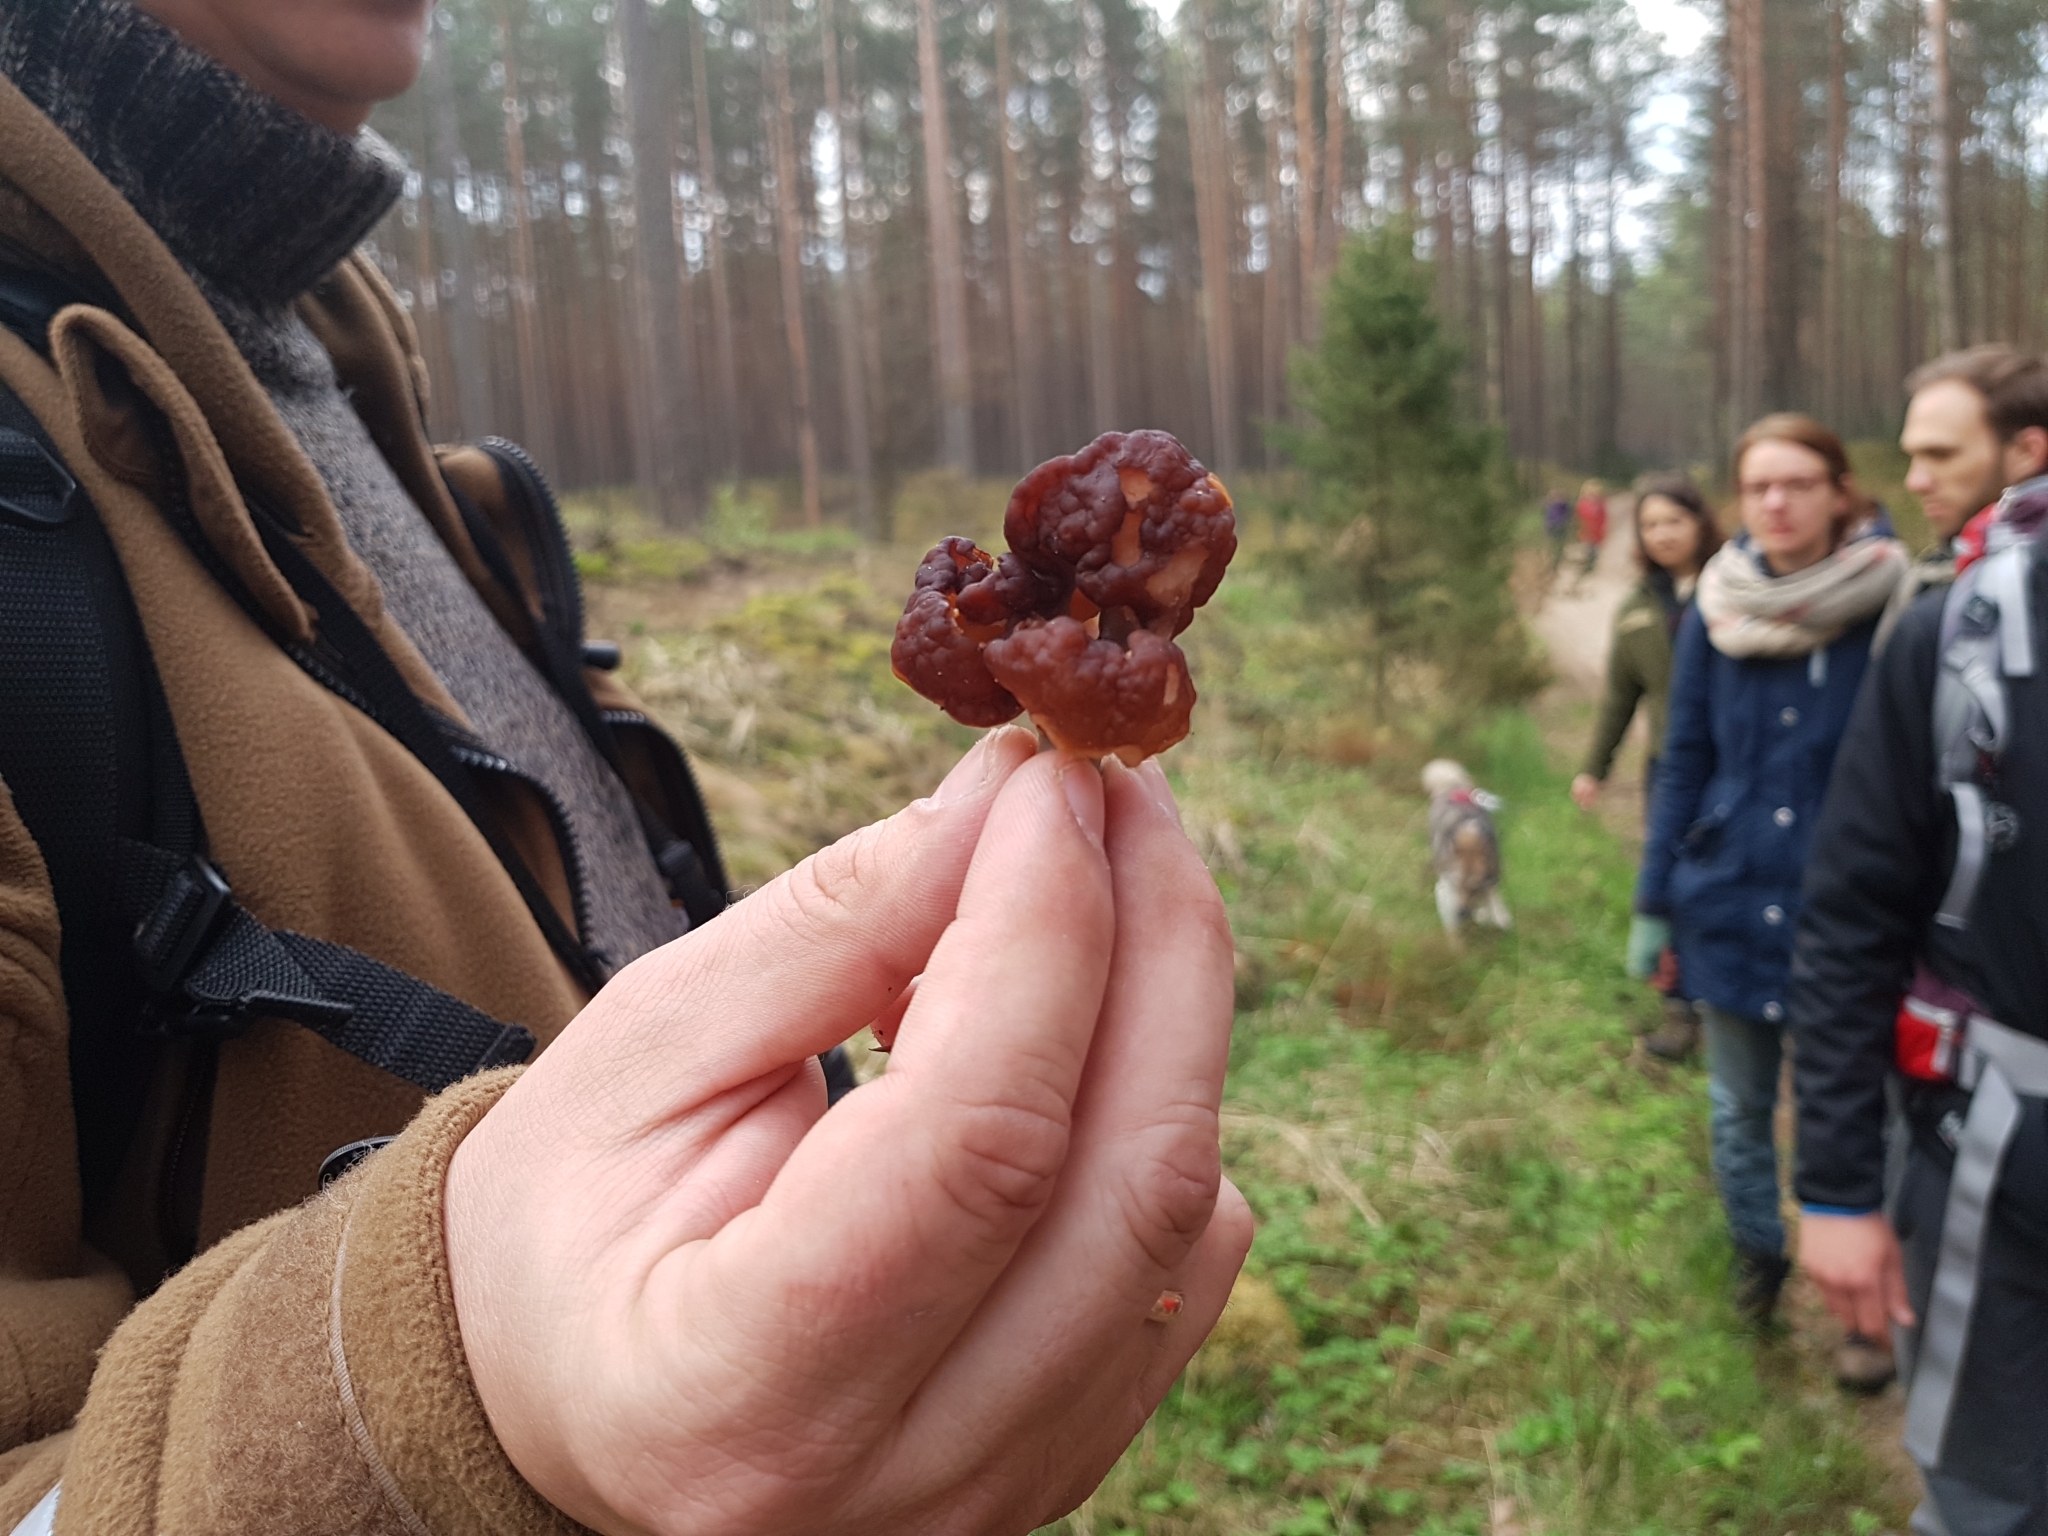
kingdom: Fungi
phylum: Ascomycota
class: Pezizomycetes
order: Pezizales
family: Discinaceae
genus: Gyromitra
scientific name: Gyromitra esculenta
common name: False morel
